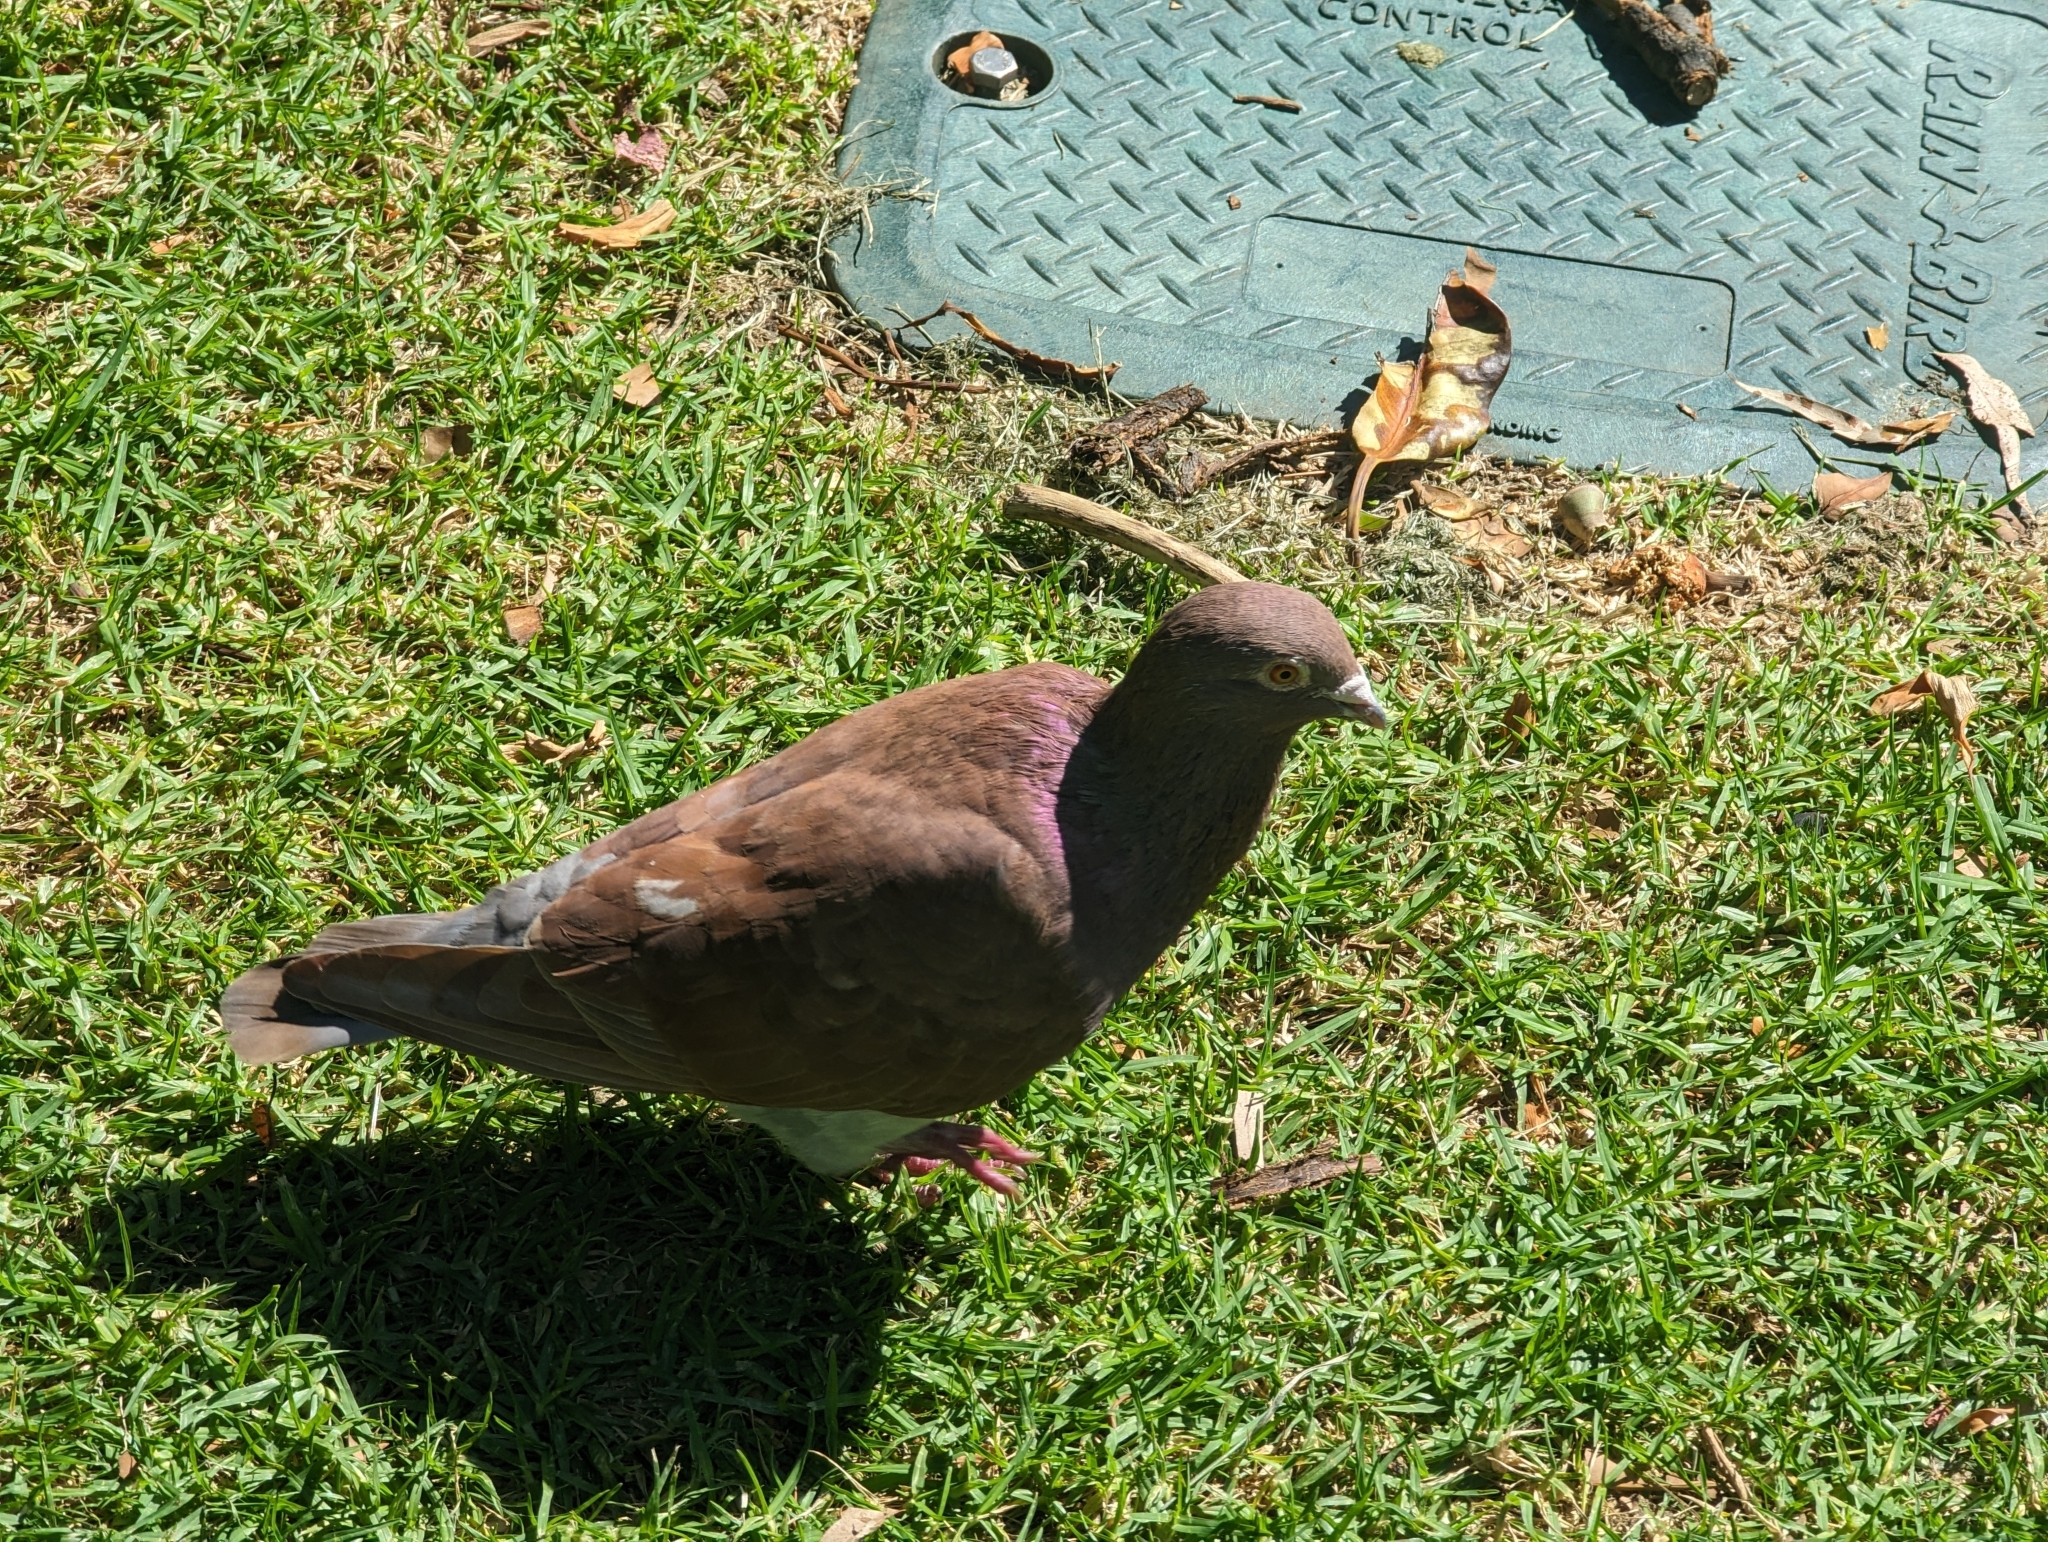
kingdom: Animalia
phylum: Chordata
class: Aves
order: Columbiformes
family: Columbidae
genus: Columba
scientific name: Columba livia
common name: Rock pigeon
